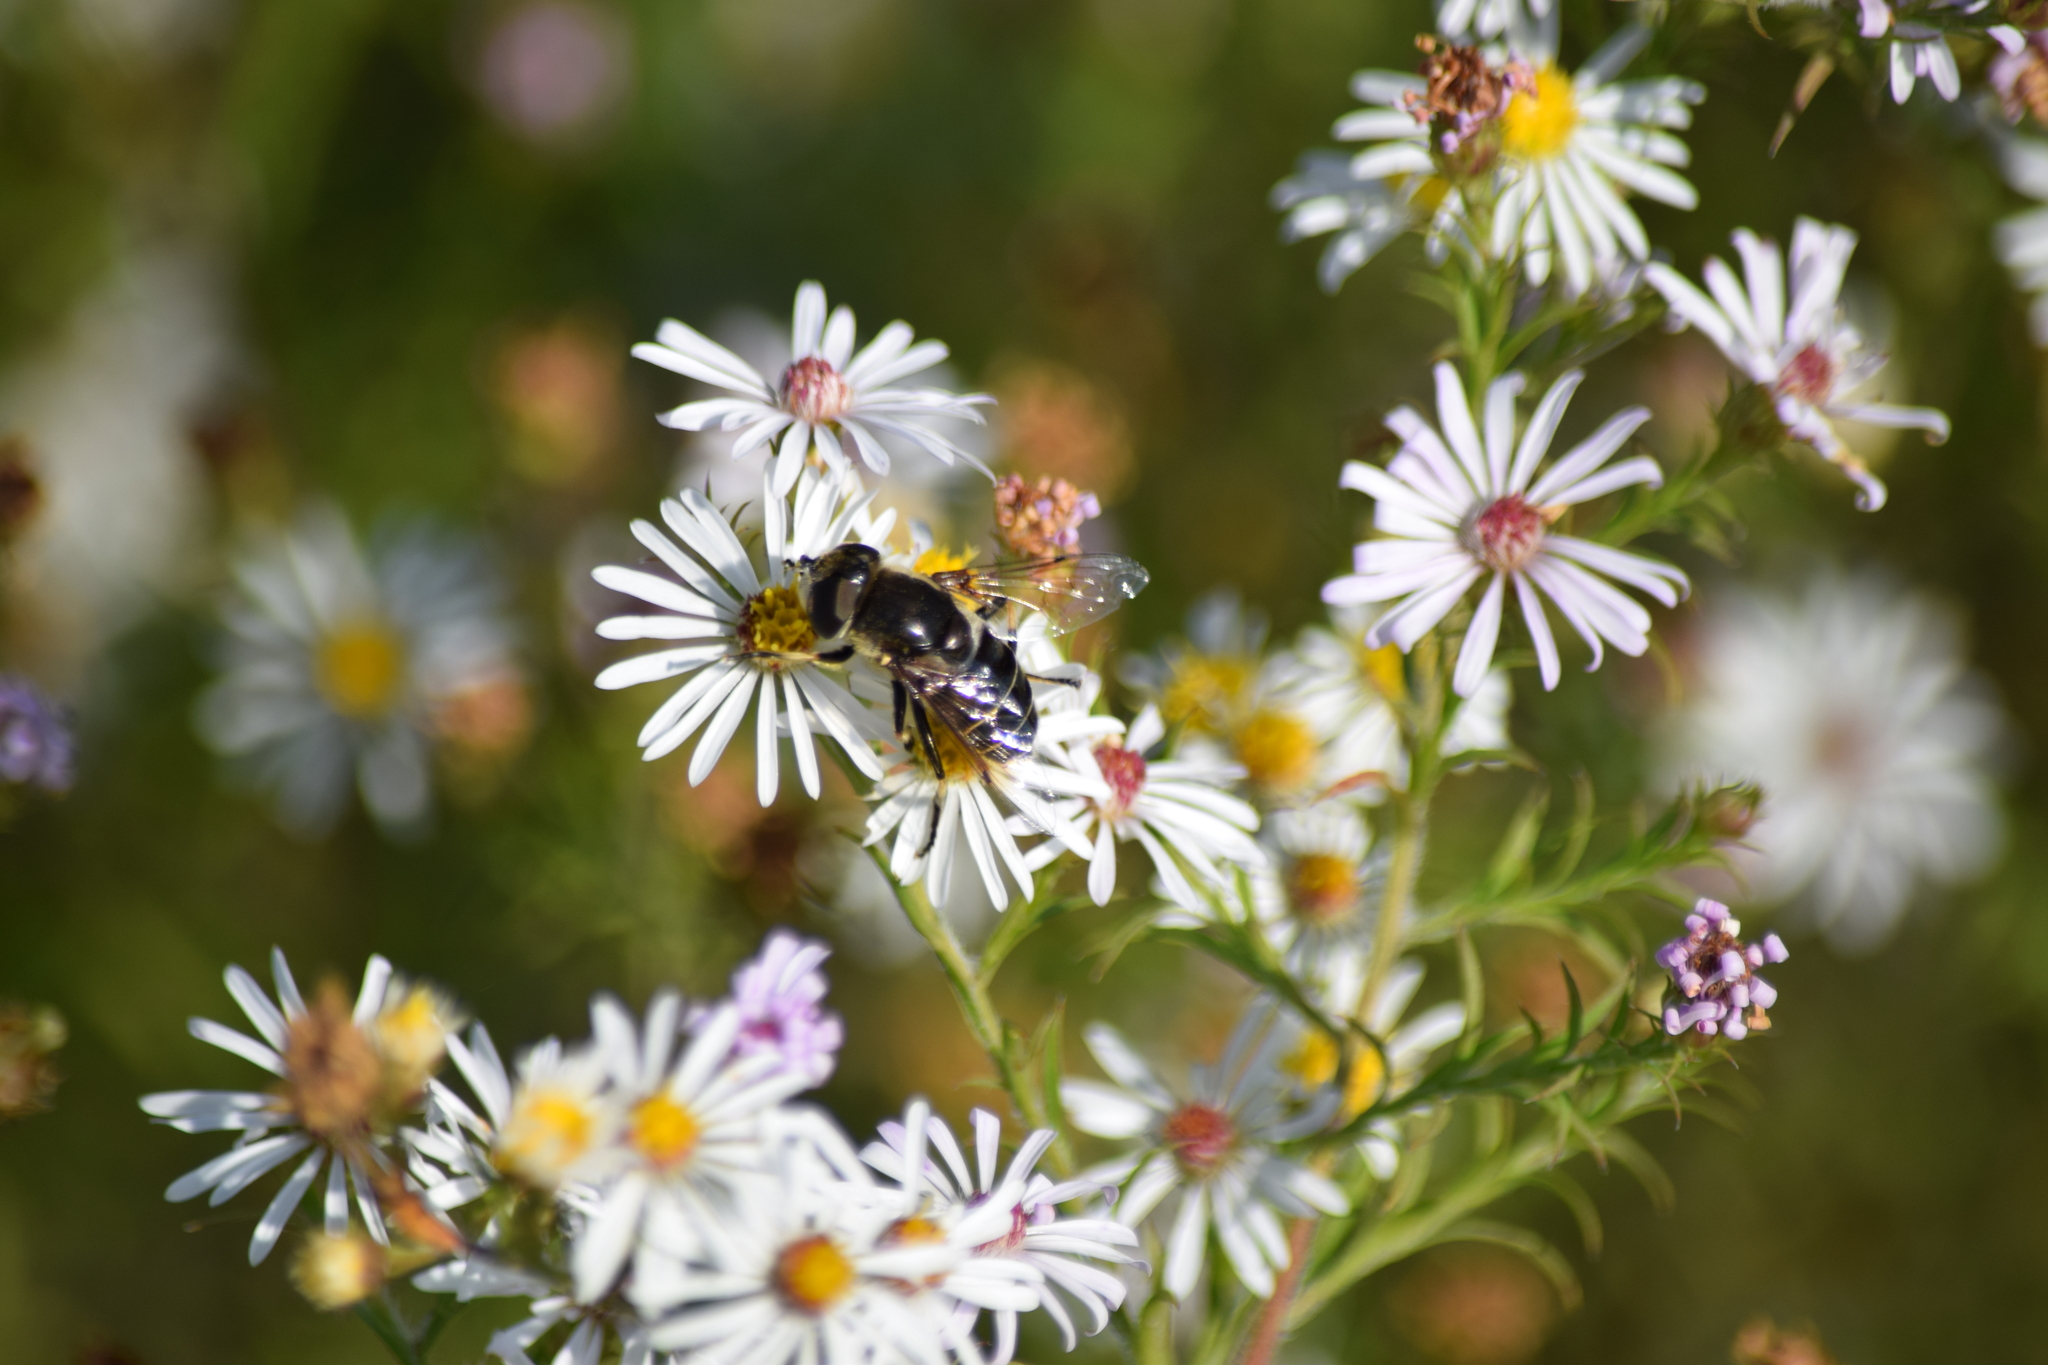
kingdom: Animalia
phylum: Arthropoda
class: Insecta
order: Diptera
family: Syrphidae
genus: Eristalis
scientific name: Eristalis dimidiata
